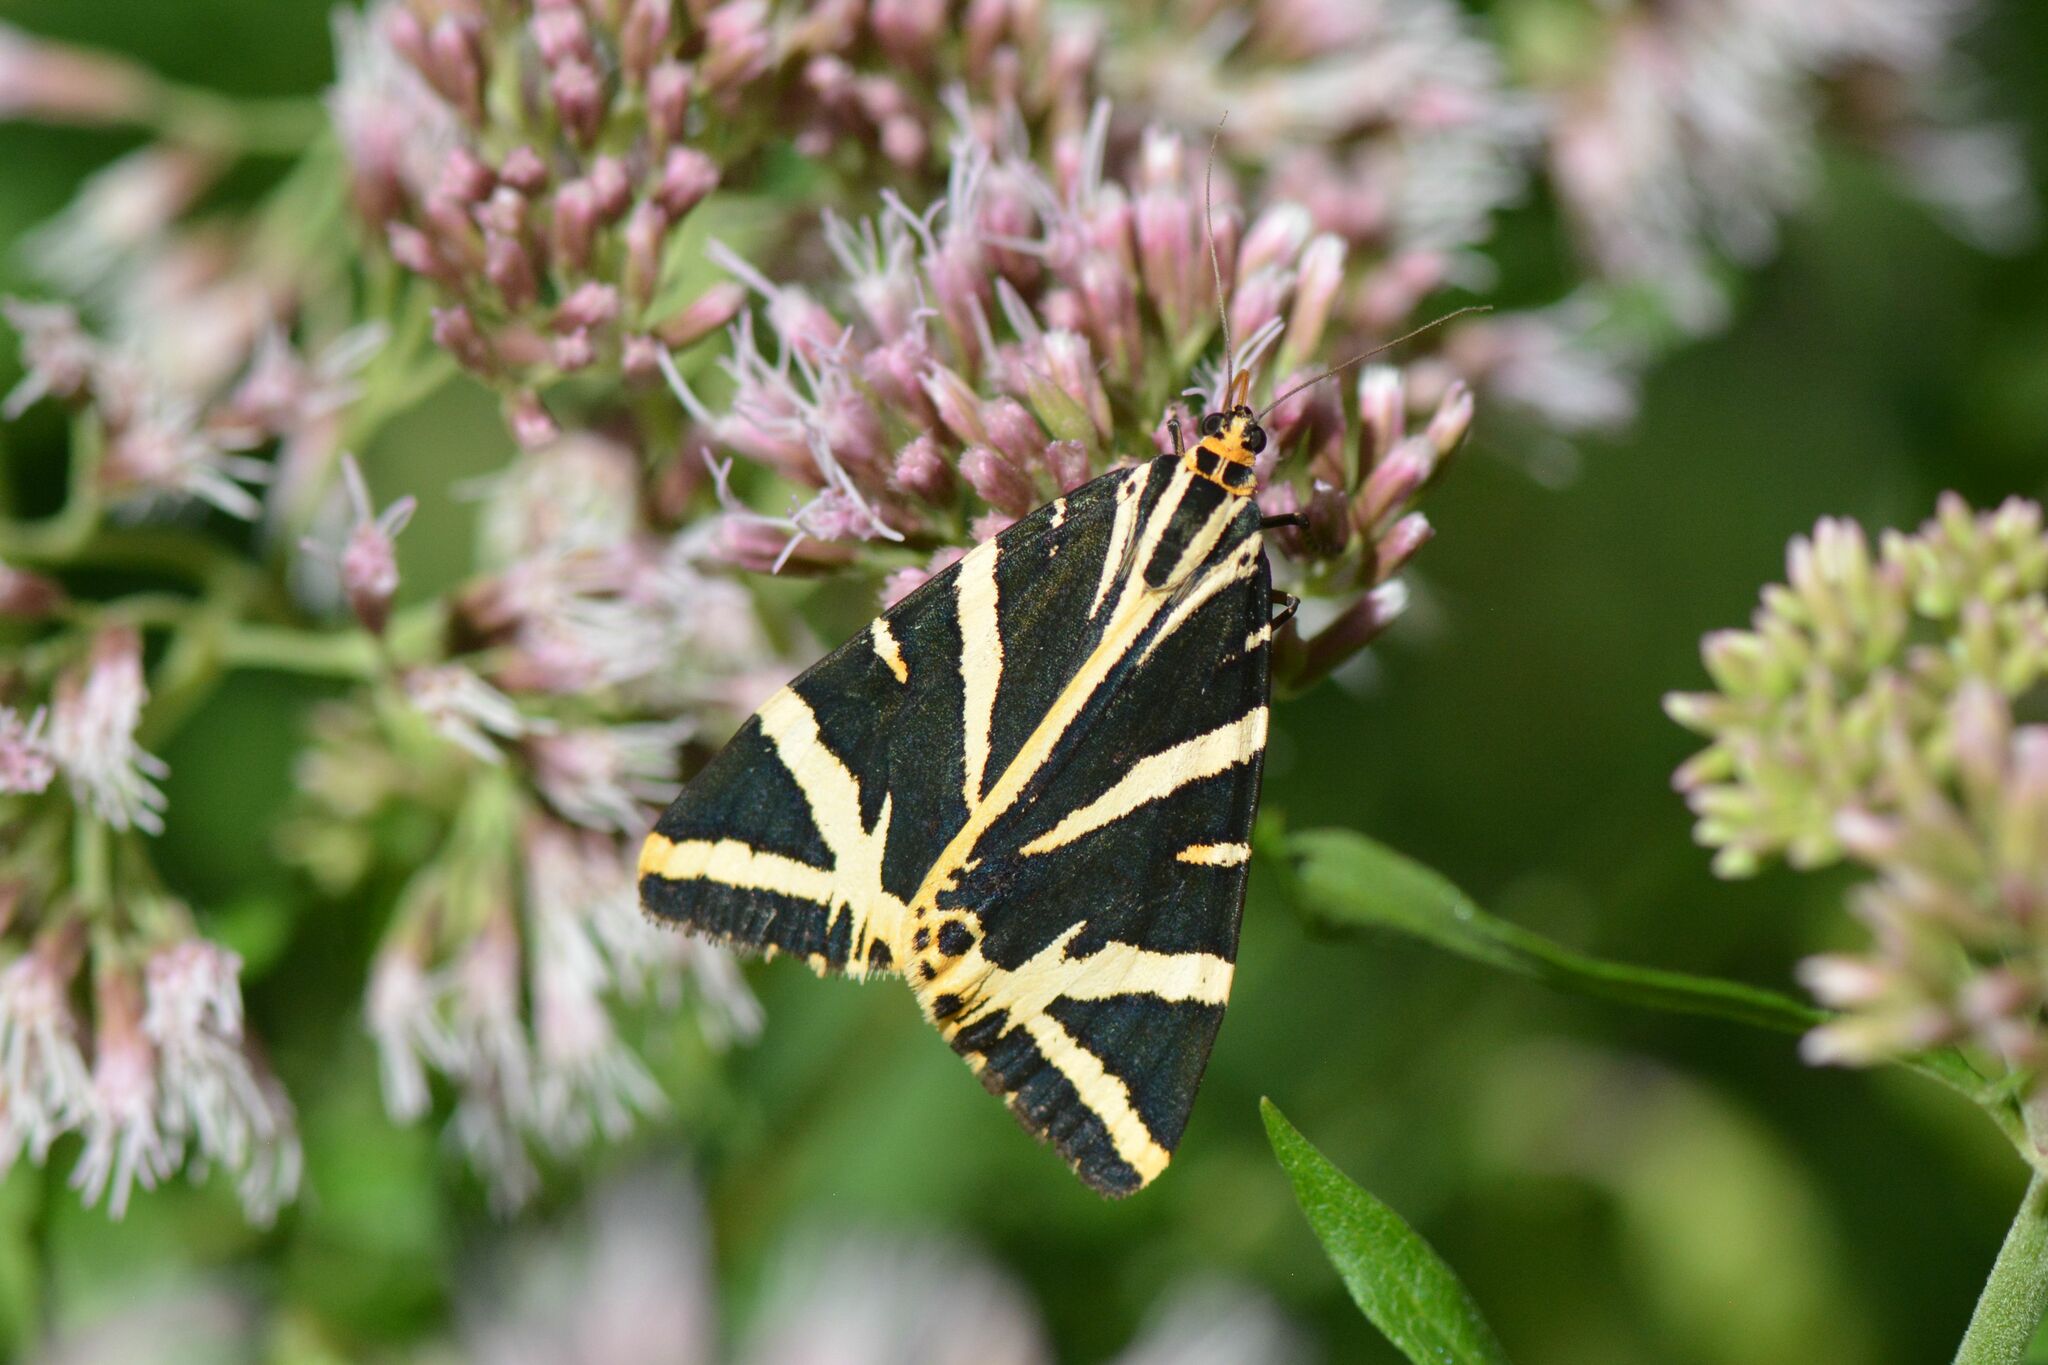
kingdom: Animalia
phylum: Arthropoda
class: Insecta
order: Lepidoptera
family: Erebidae
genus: Euplagia
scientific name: Euplagia quadripunctaria
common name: Jersey tiger
